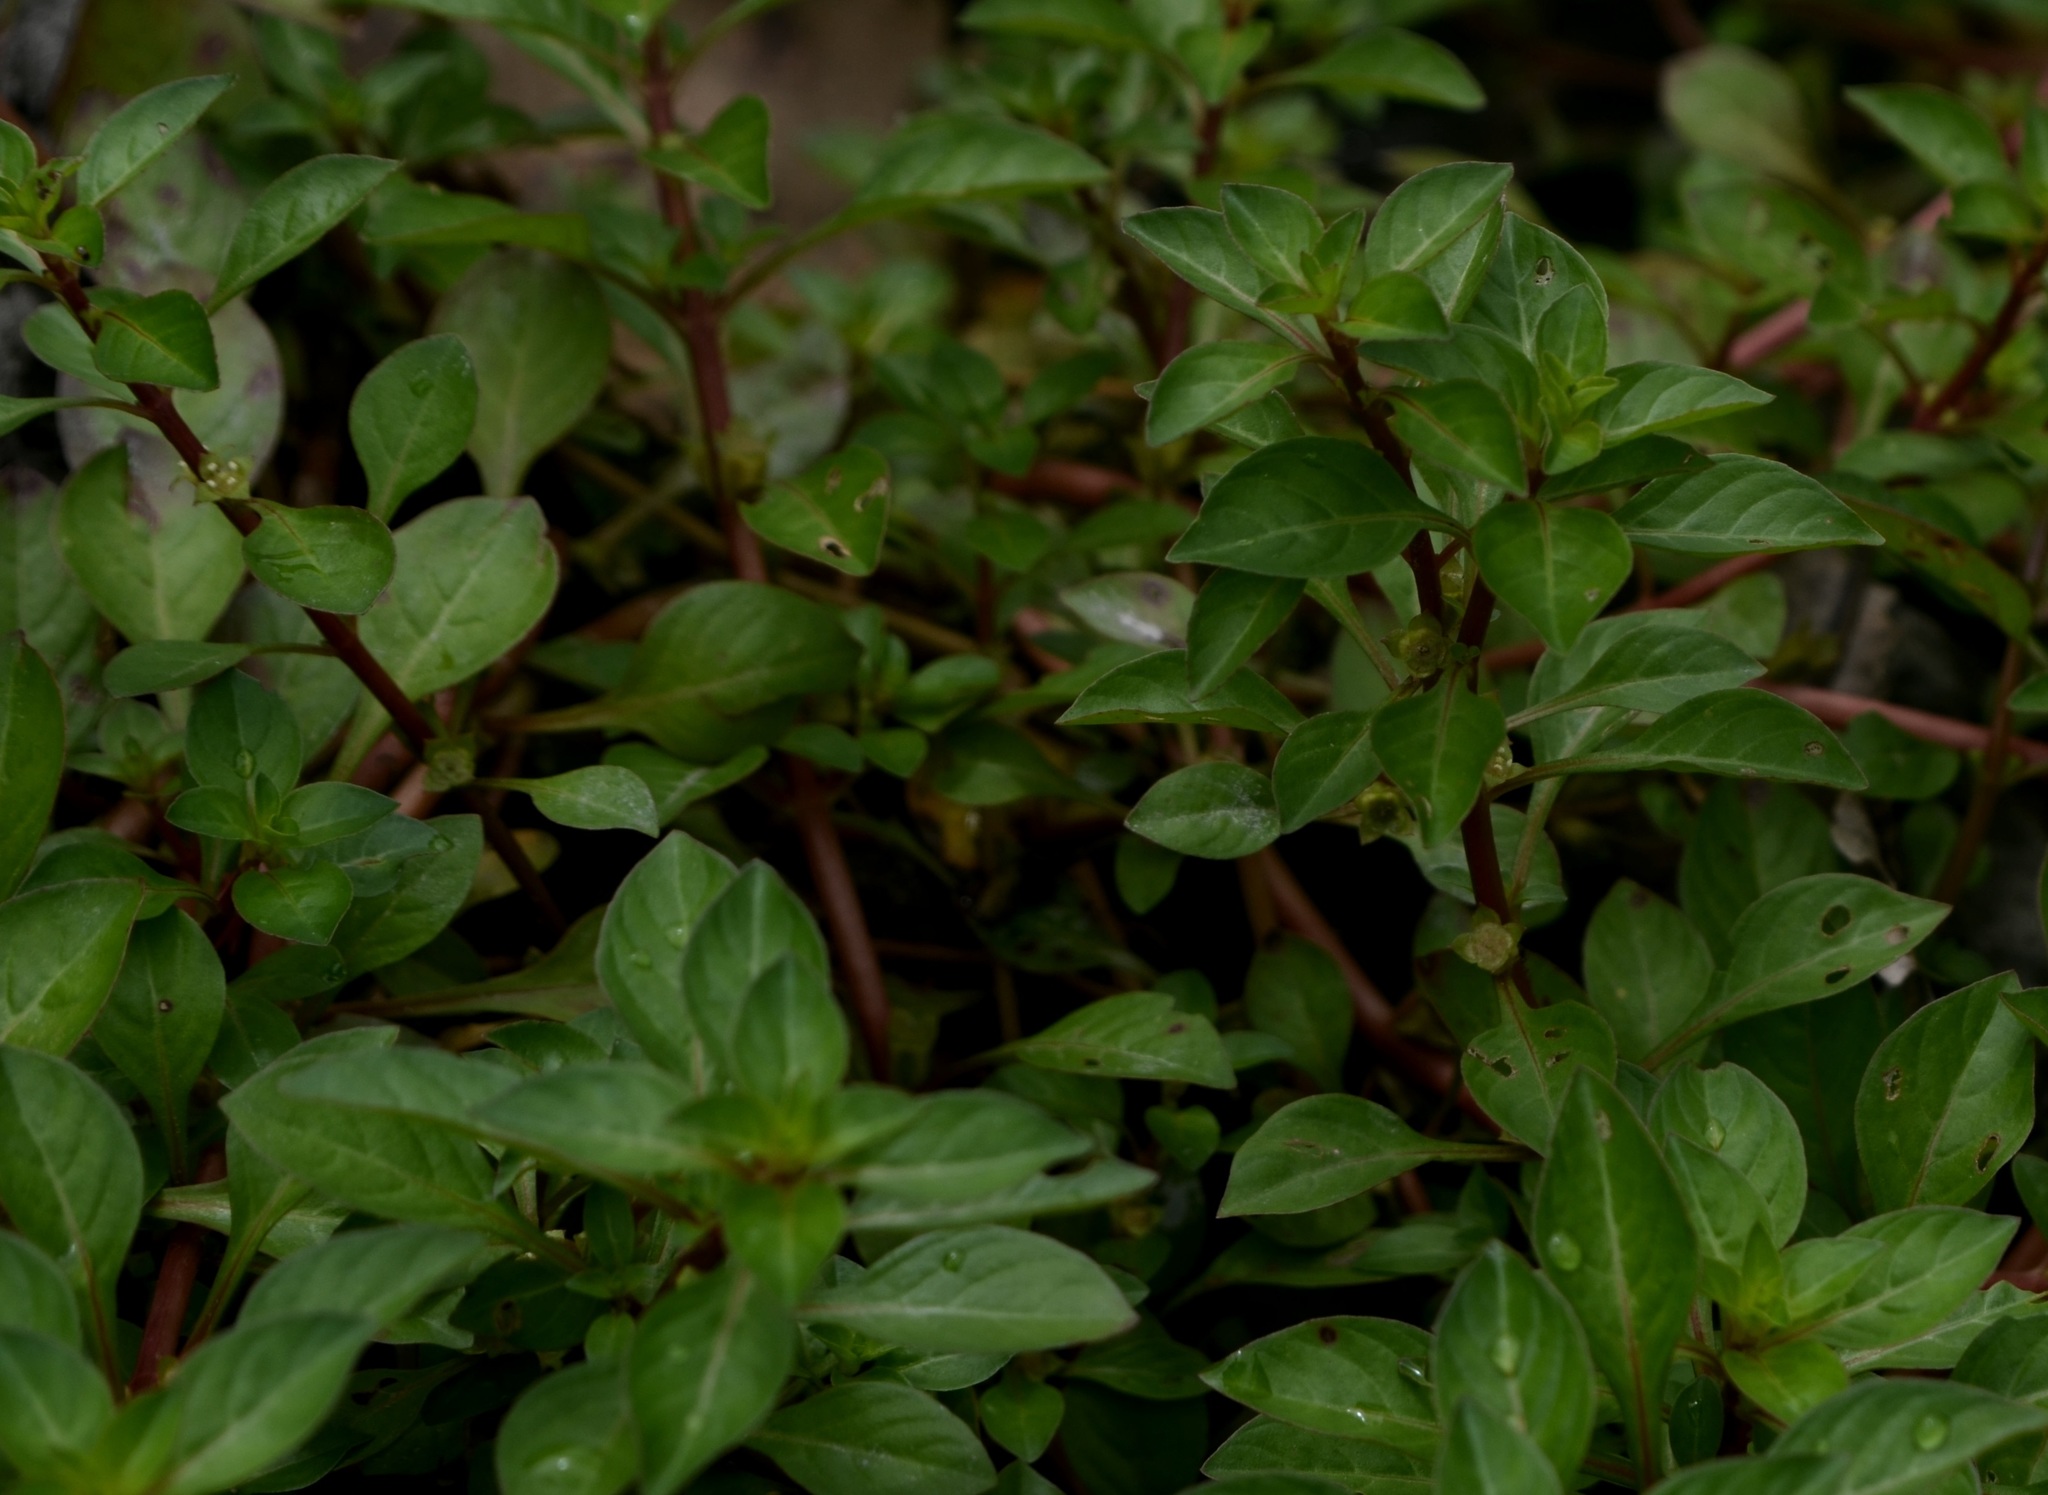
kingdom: Plantae
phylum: Tracheophyta
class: Magnoliopsida
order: Myrtales
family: Onagraceae
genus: Ludwigia
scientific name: Ludwigia palustris
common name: Hampshire-purslane
